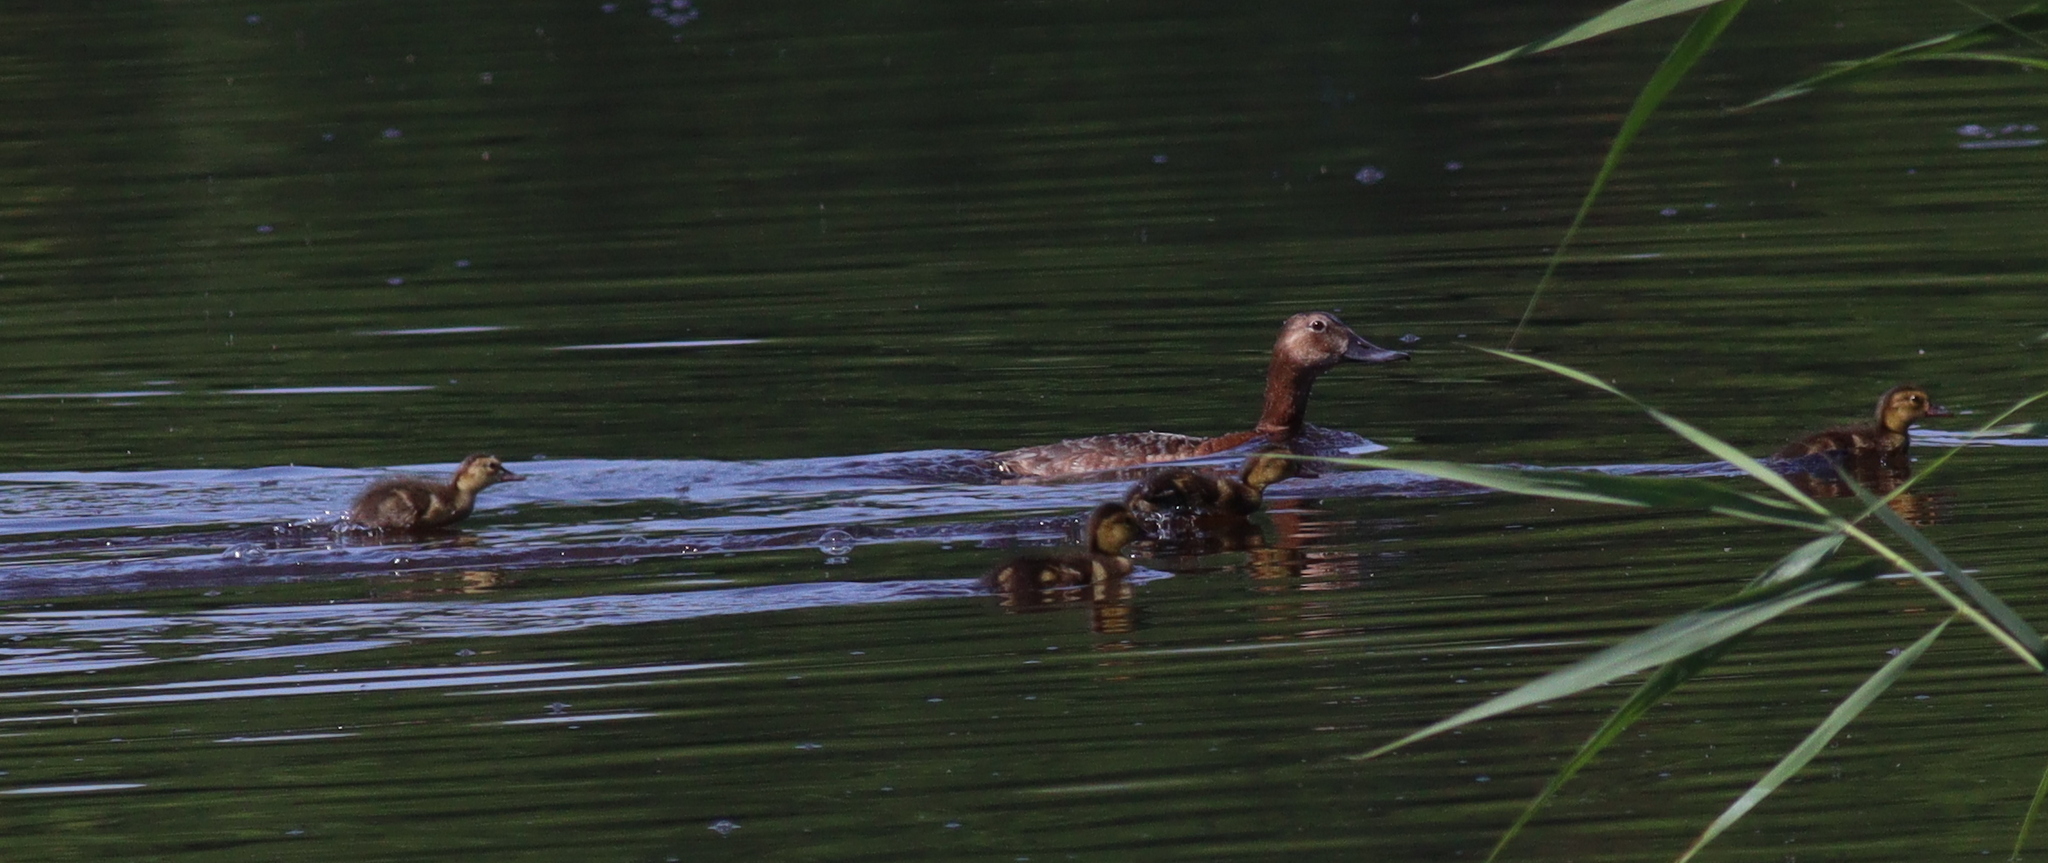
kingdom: Animalia
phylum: Chordata
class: Aves
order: Anseriformes
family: Anatidae
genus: Aythya
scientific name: Aythya ferina
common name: Common pochard
